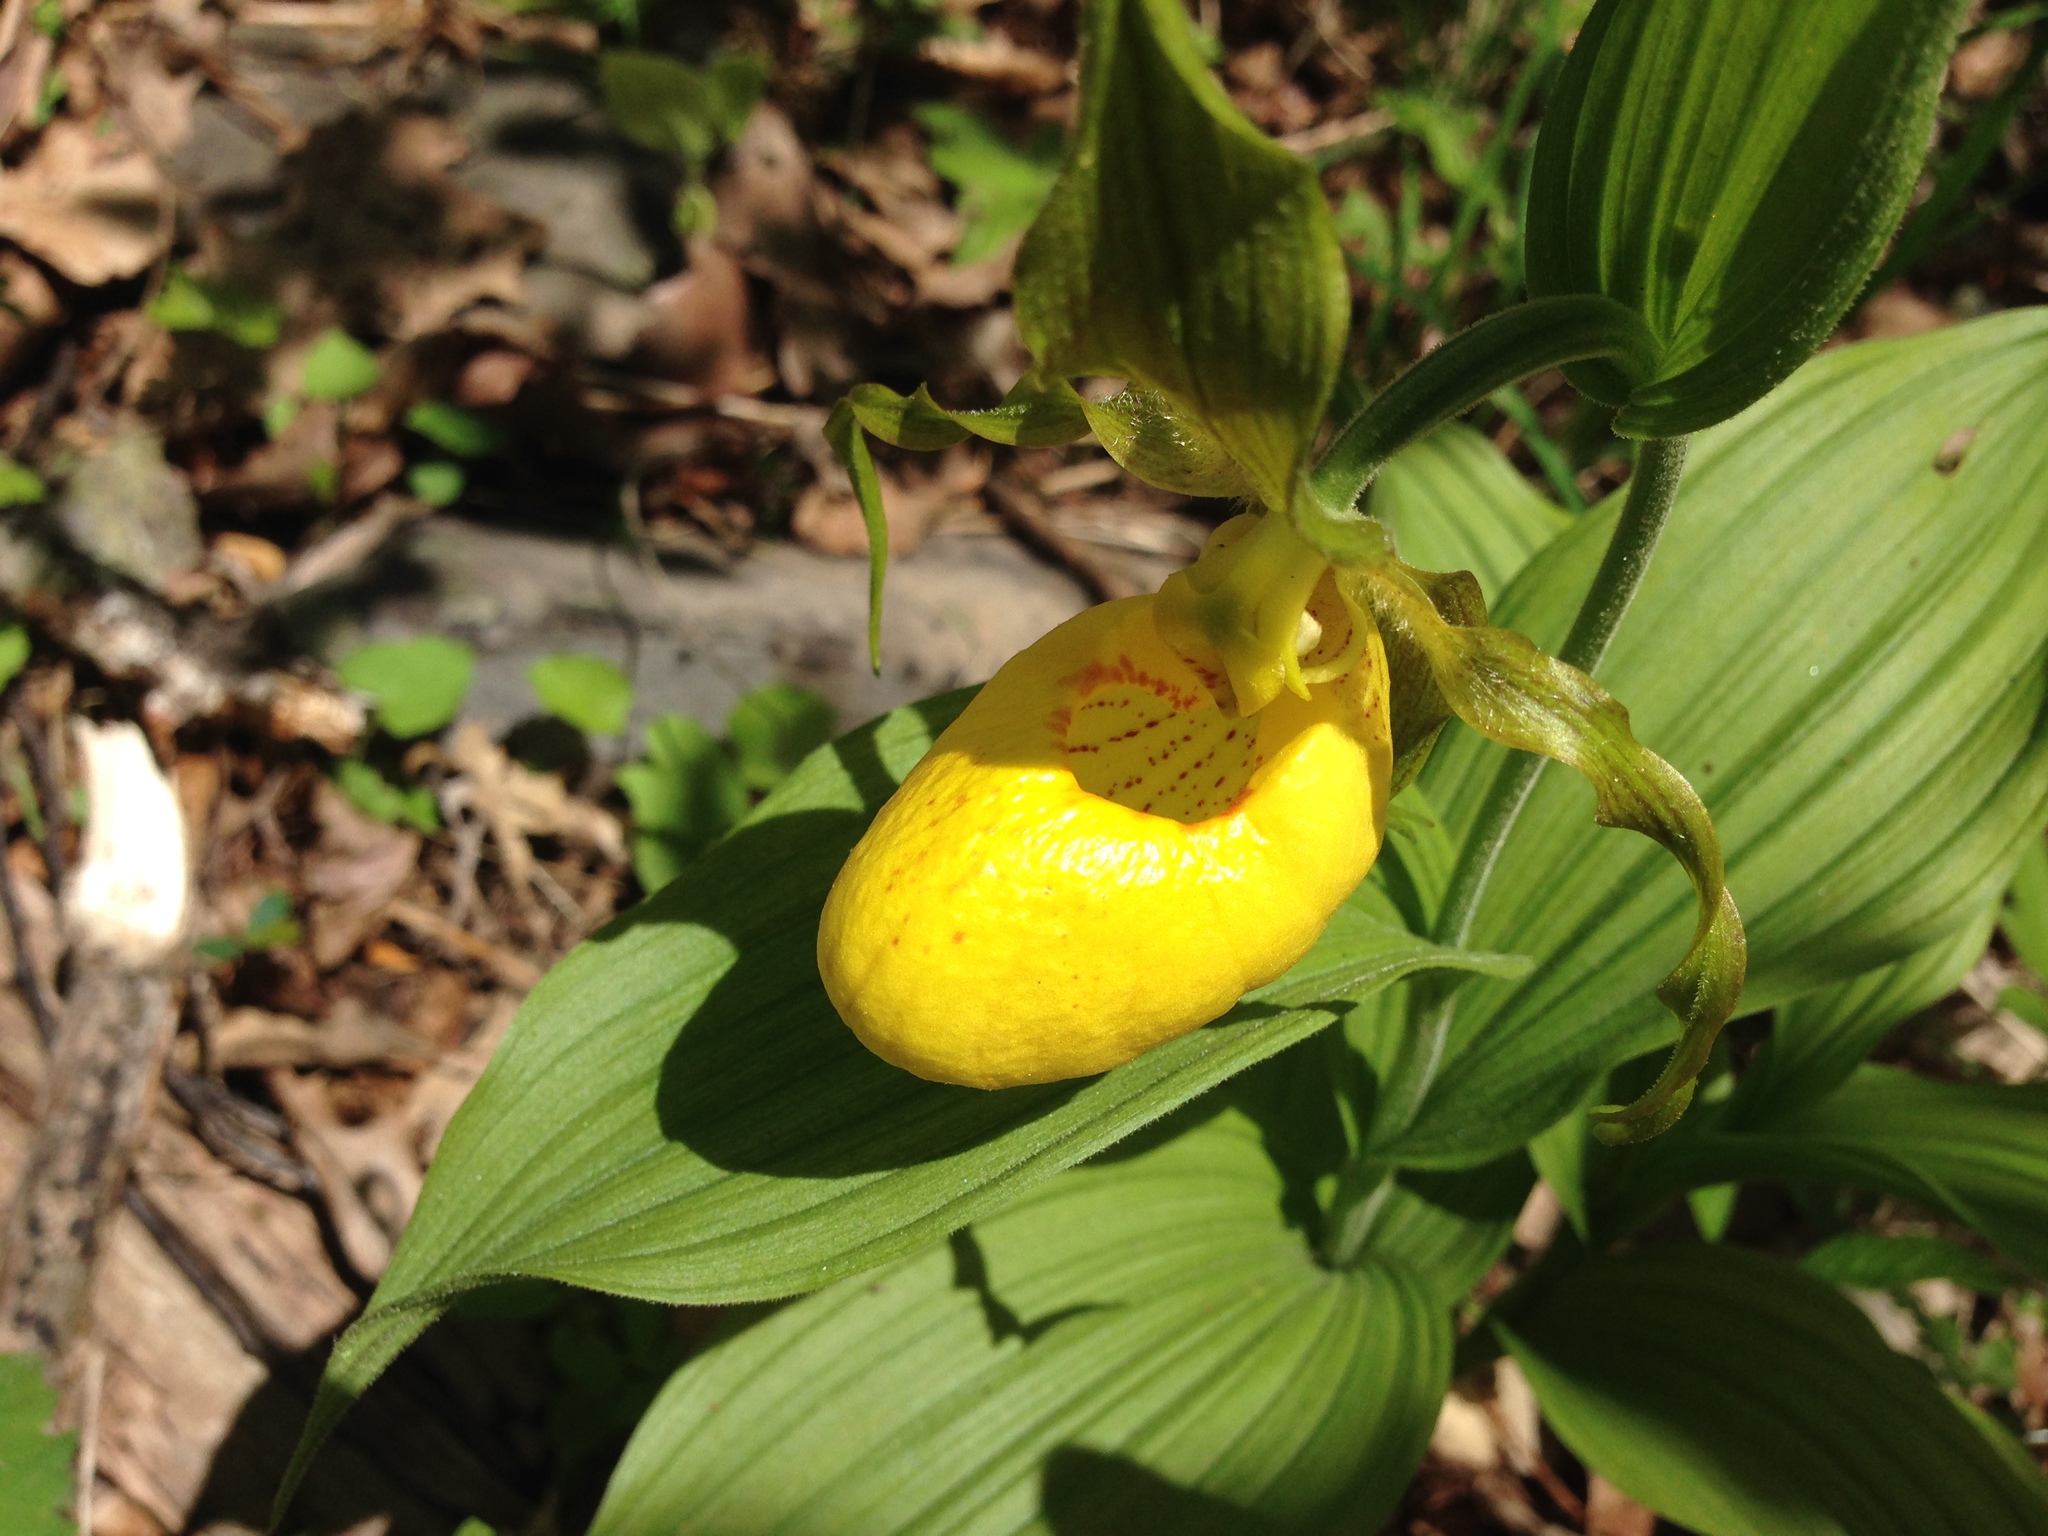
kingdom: Plantae
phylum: Tracheophyta
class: Liliopsida
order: Asparagales
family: Orchidaceae
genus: Cypripedium
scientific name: Cypripedium parviflorum
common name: American yellow lady's-slipper
